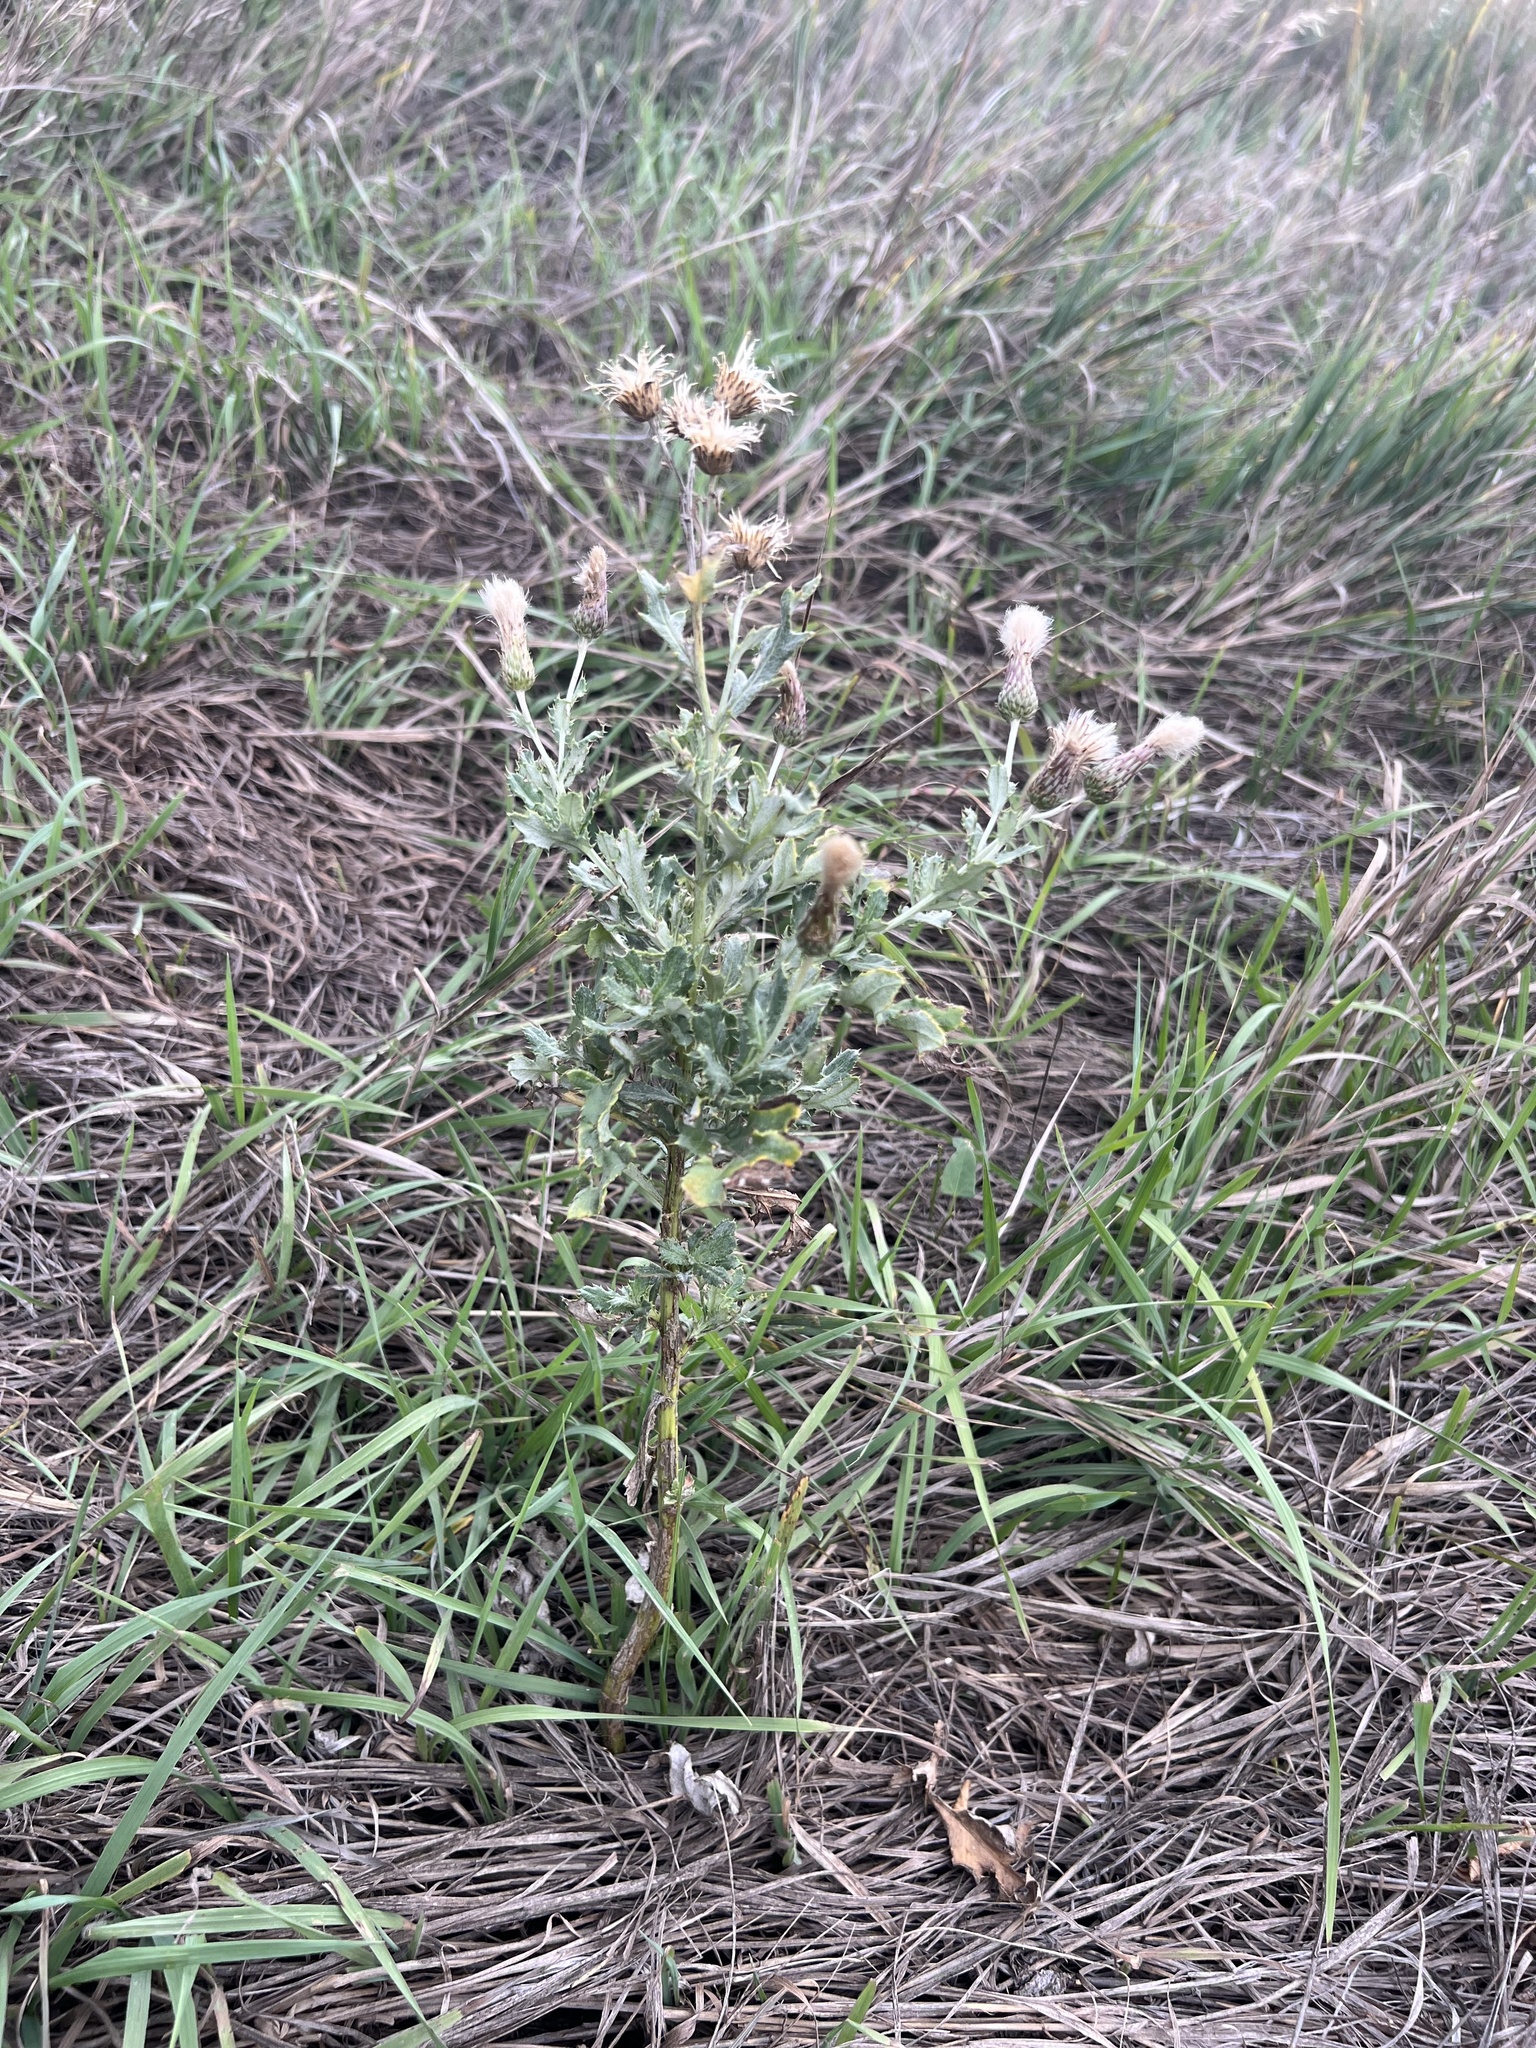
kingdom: Plantae
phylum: Tracheophyta
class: Magnoliopsida
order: Asterales
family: Asteraceae
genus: Cirsium
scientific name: Cirsium arvense
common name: Creeping thistle
